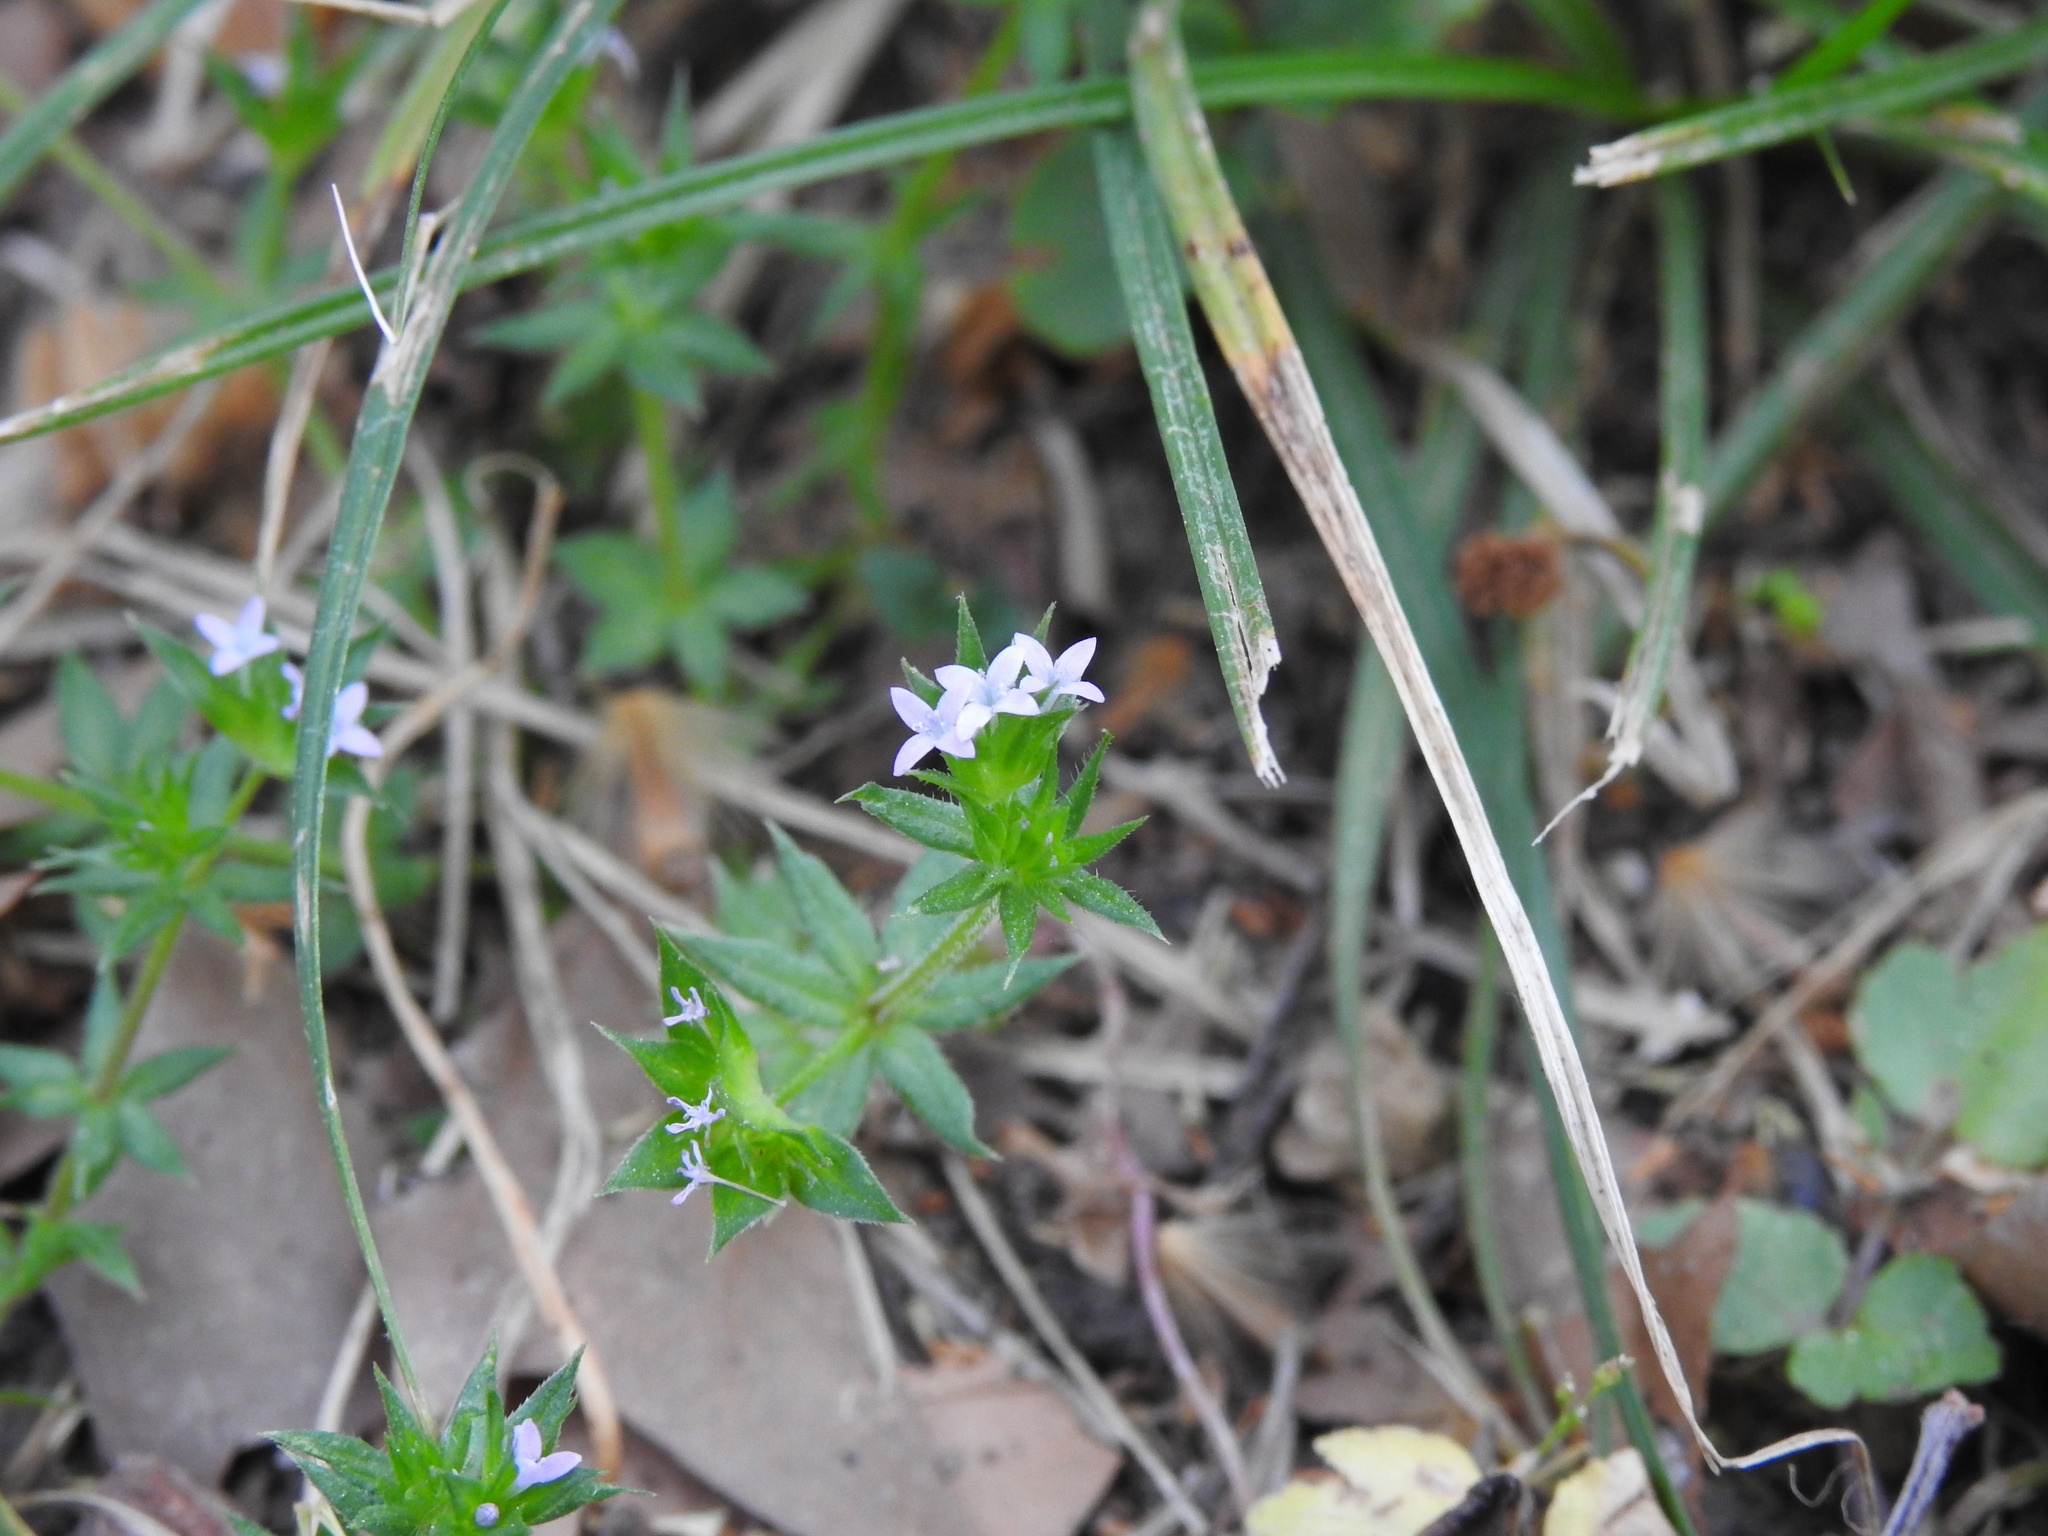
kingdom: Plantae
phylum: Tracheophyta
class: Magnoliopsida
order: Gentianales
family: Rubiaceae
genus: Sherardia
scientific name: Sherardia arvensis
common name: Field madder
